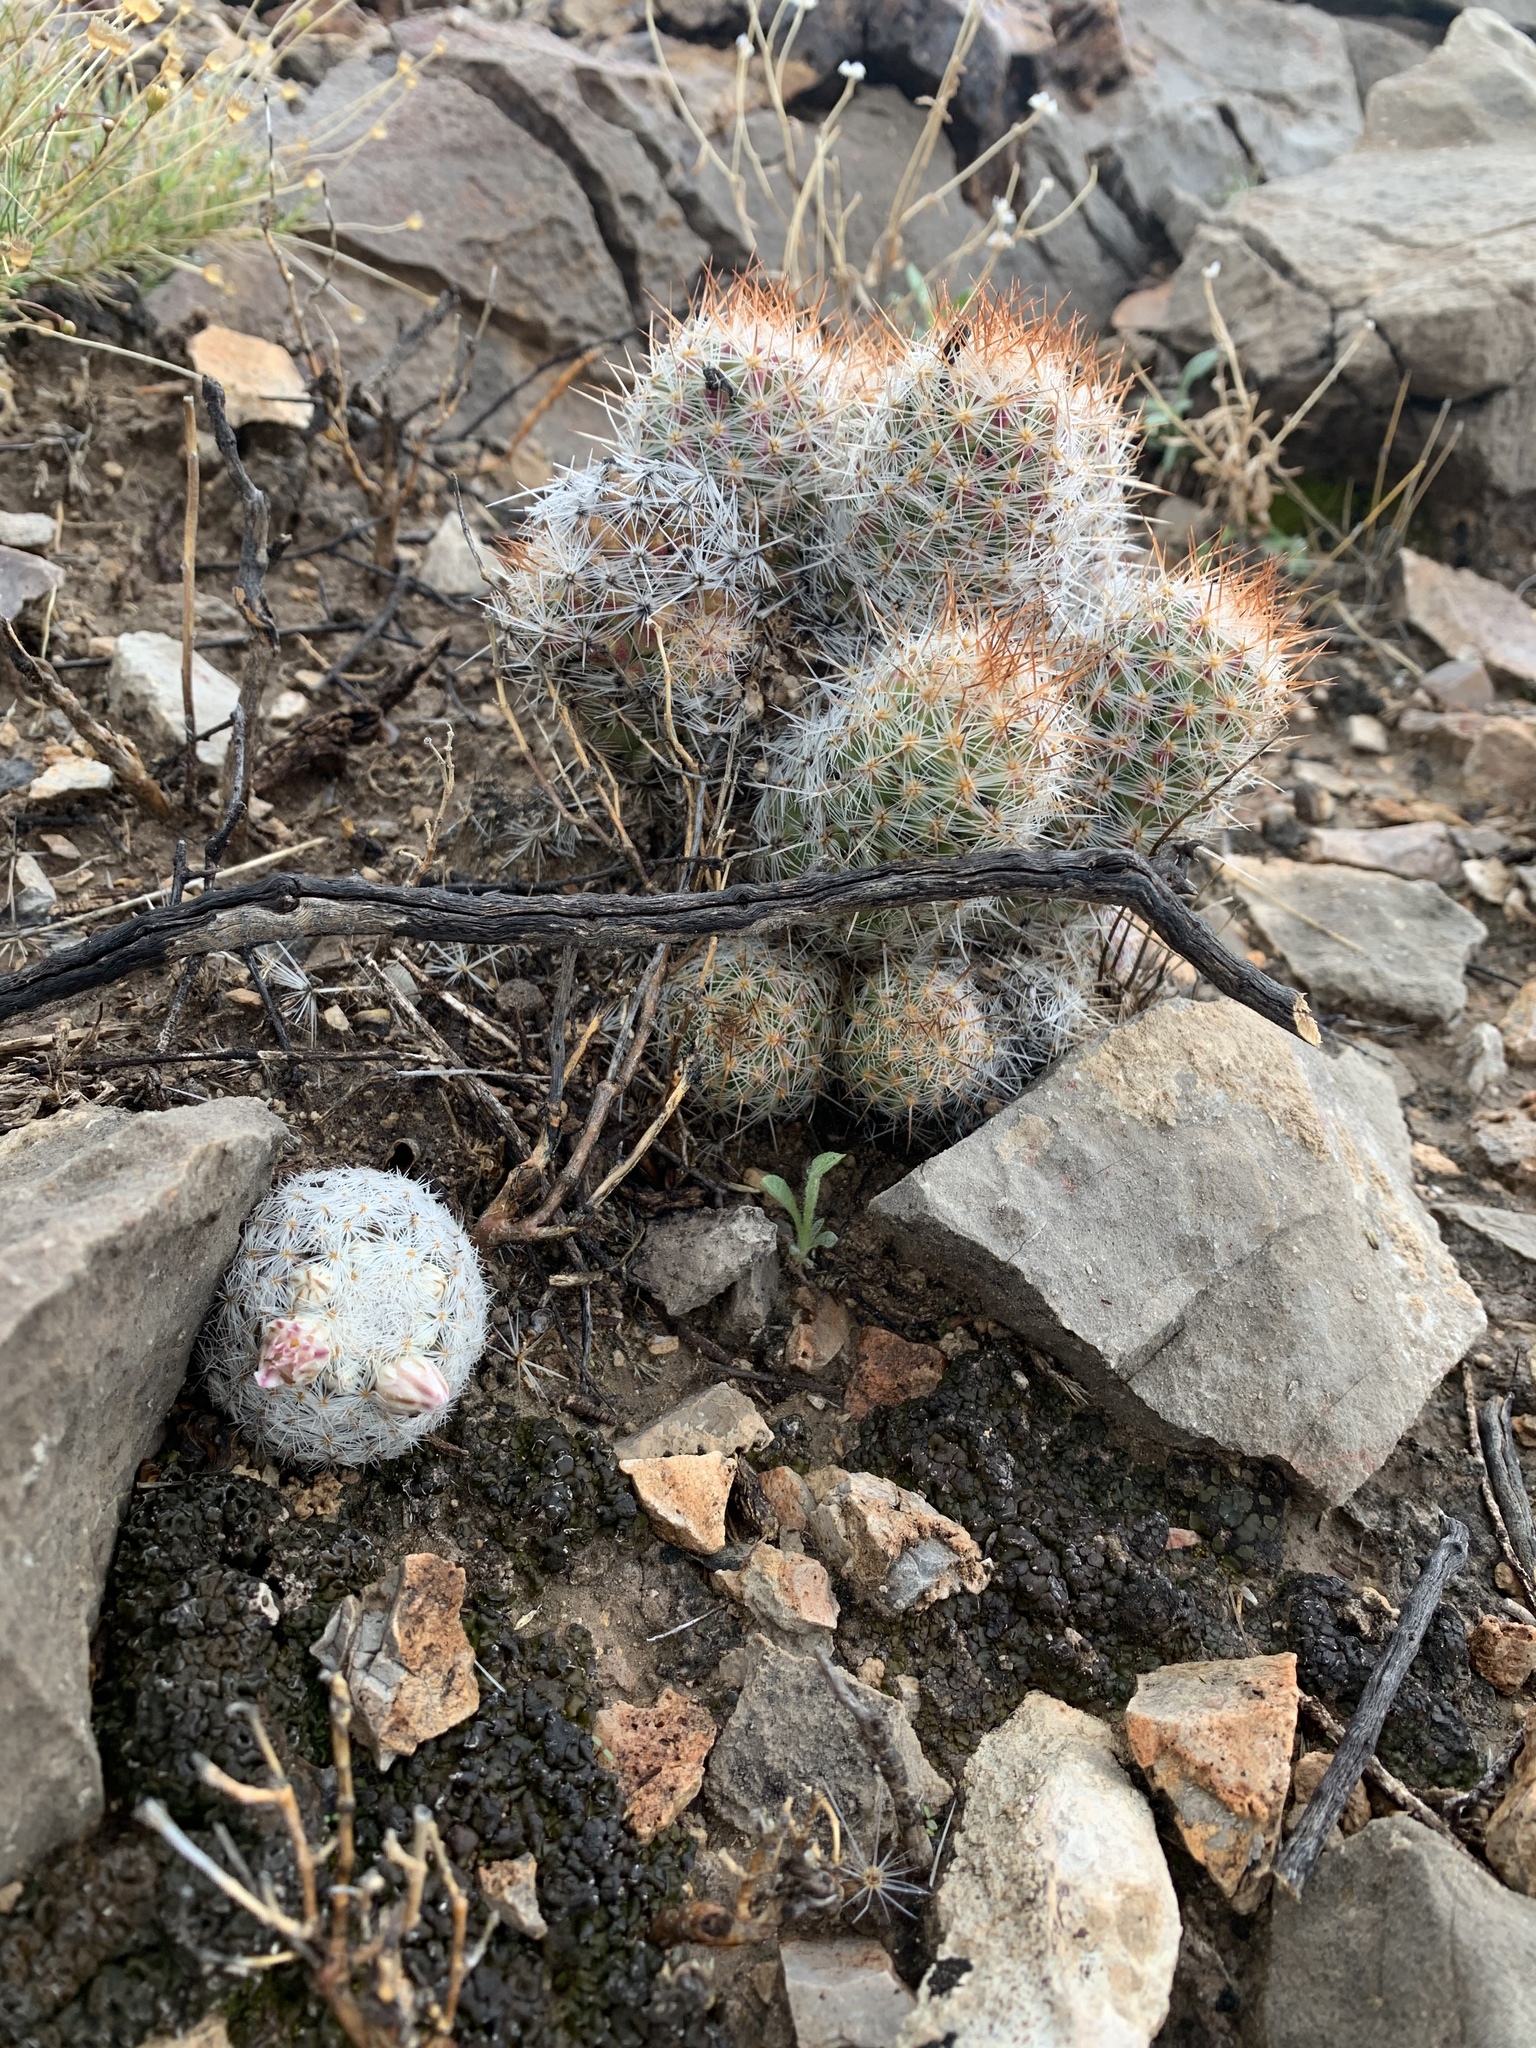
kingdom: Plantae
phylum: Tracheophyta
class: Magnoliopsida
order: Caryophyllales
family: Cactaceae
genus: Mammillaria
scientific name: Mammillaria lasiacantha
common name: Lace-spine nipple cactus
